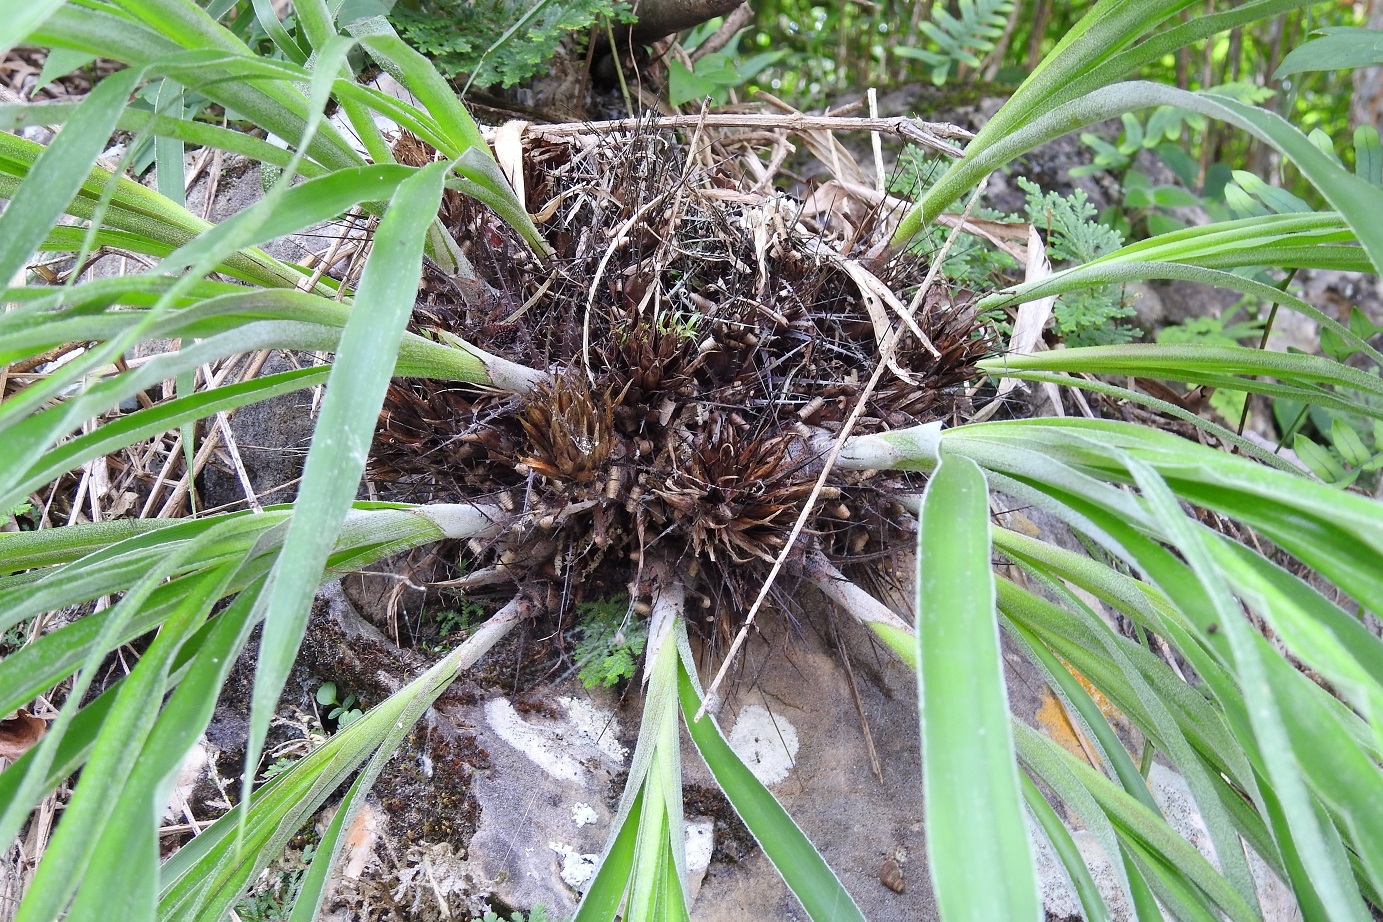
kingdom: Plantae
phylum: Tracheophyta
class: Liliopsida
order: Poales
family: Bromeliaceae
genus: Pitcairnia
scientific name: Pitcairnia heterophylla
